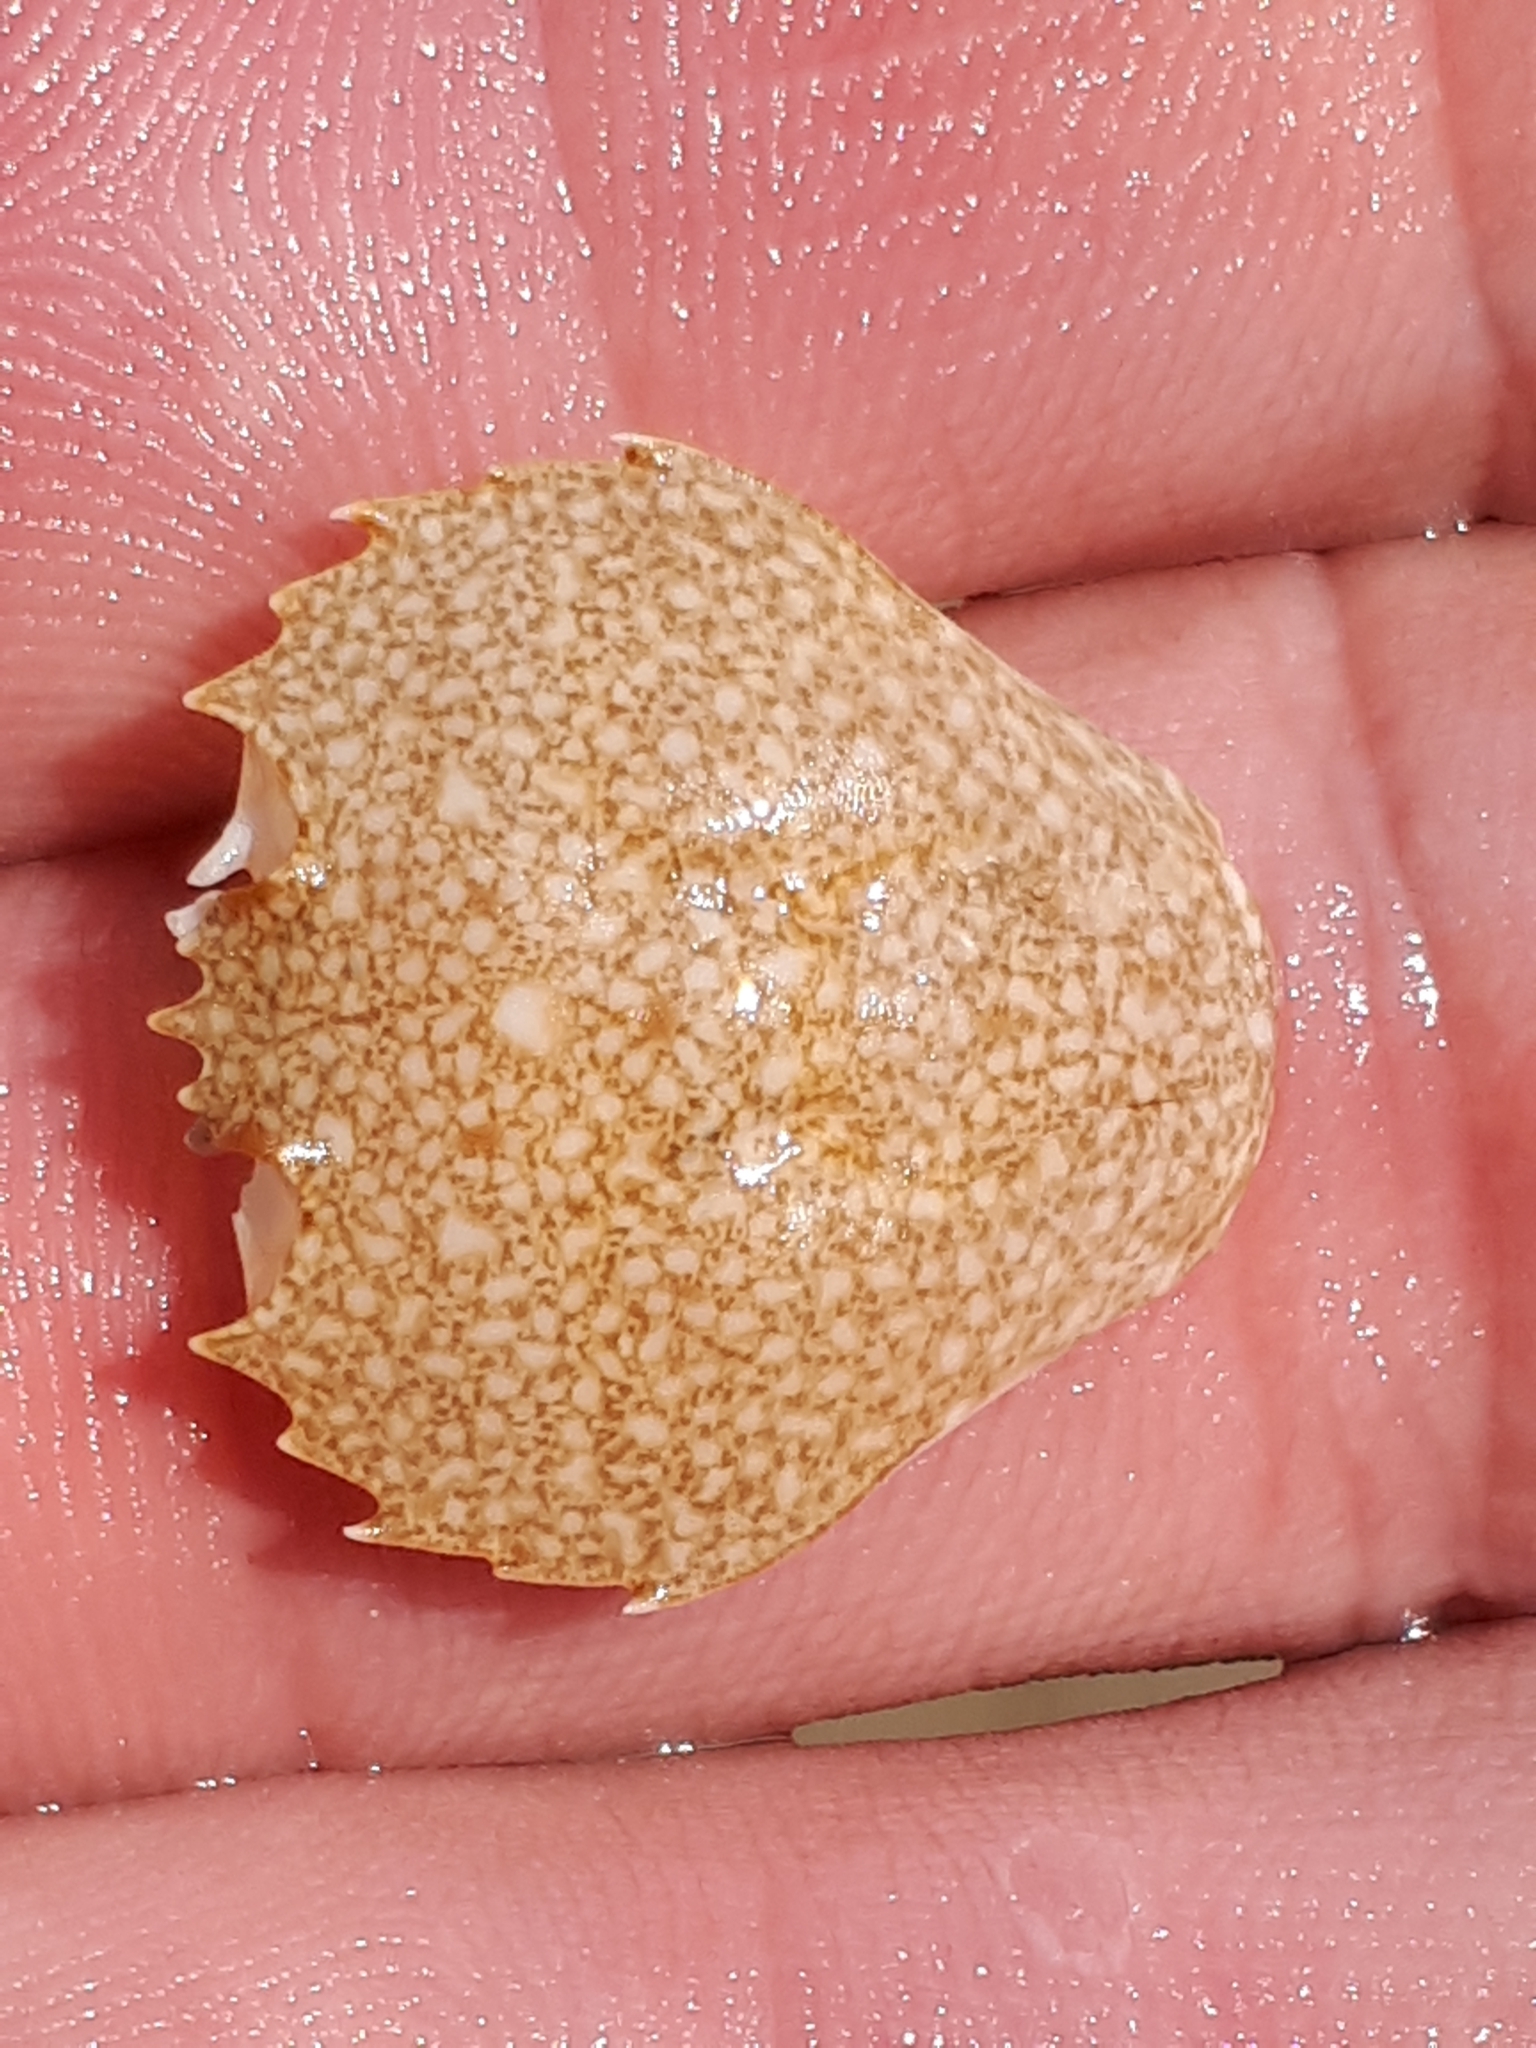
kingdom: Animalia
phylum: Arthropoda
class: Malacostraca
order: Decapoda
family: Carcinidae
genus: Portumnus
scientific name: Portumnus latipes
